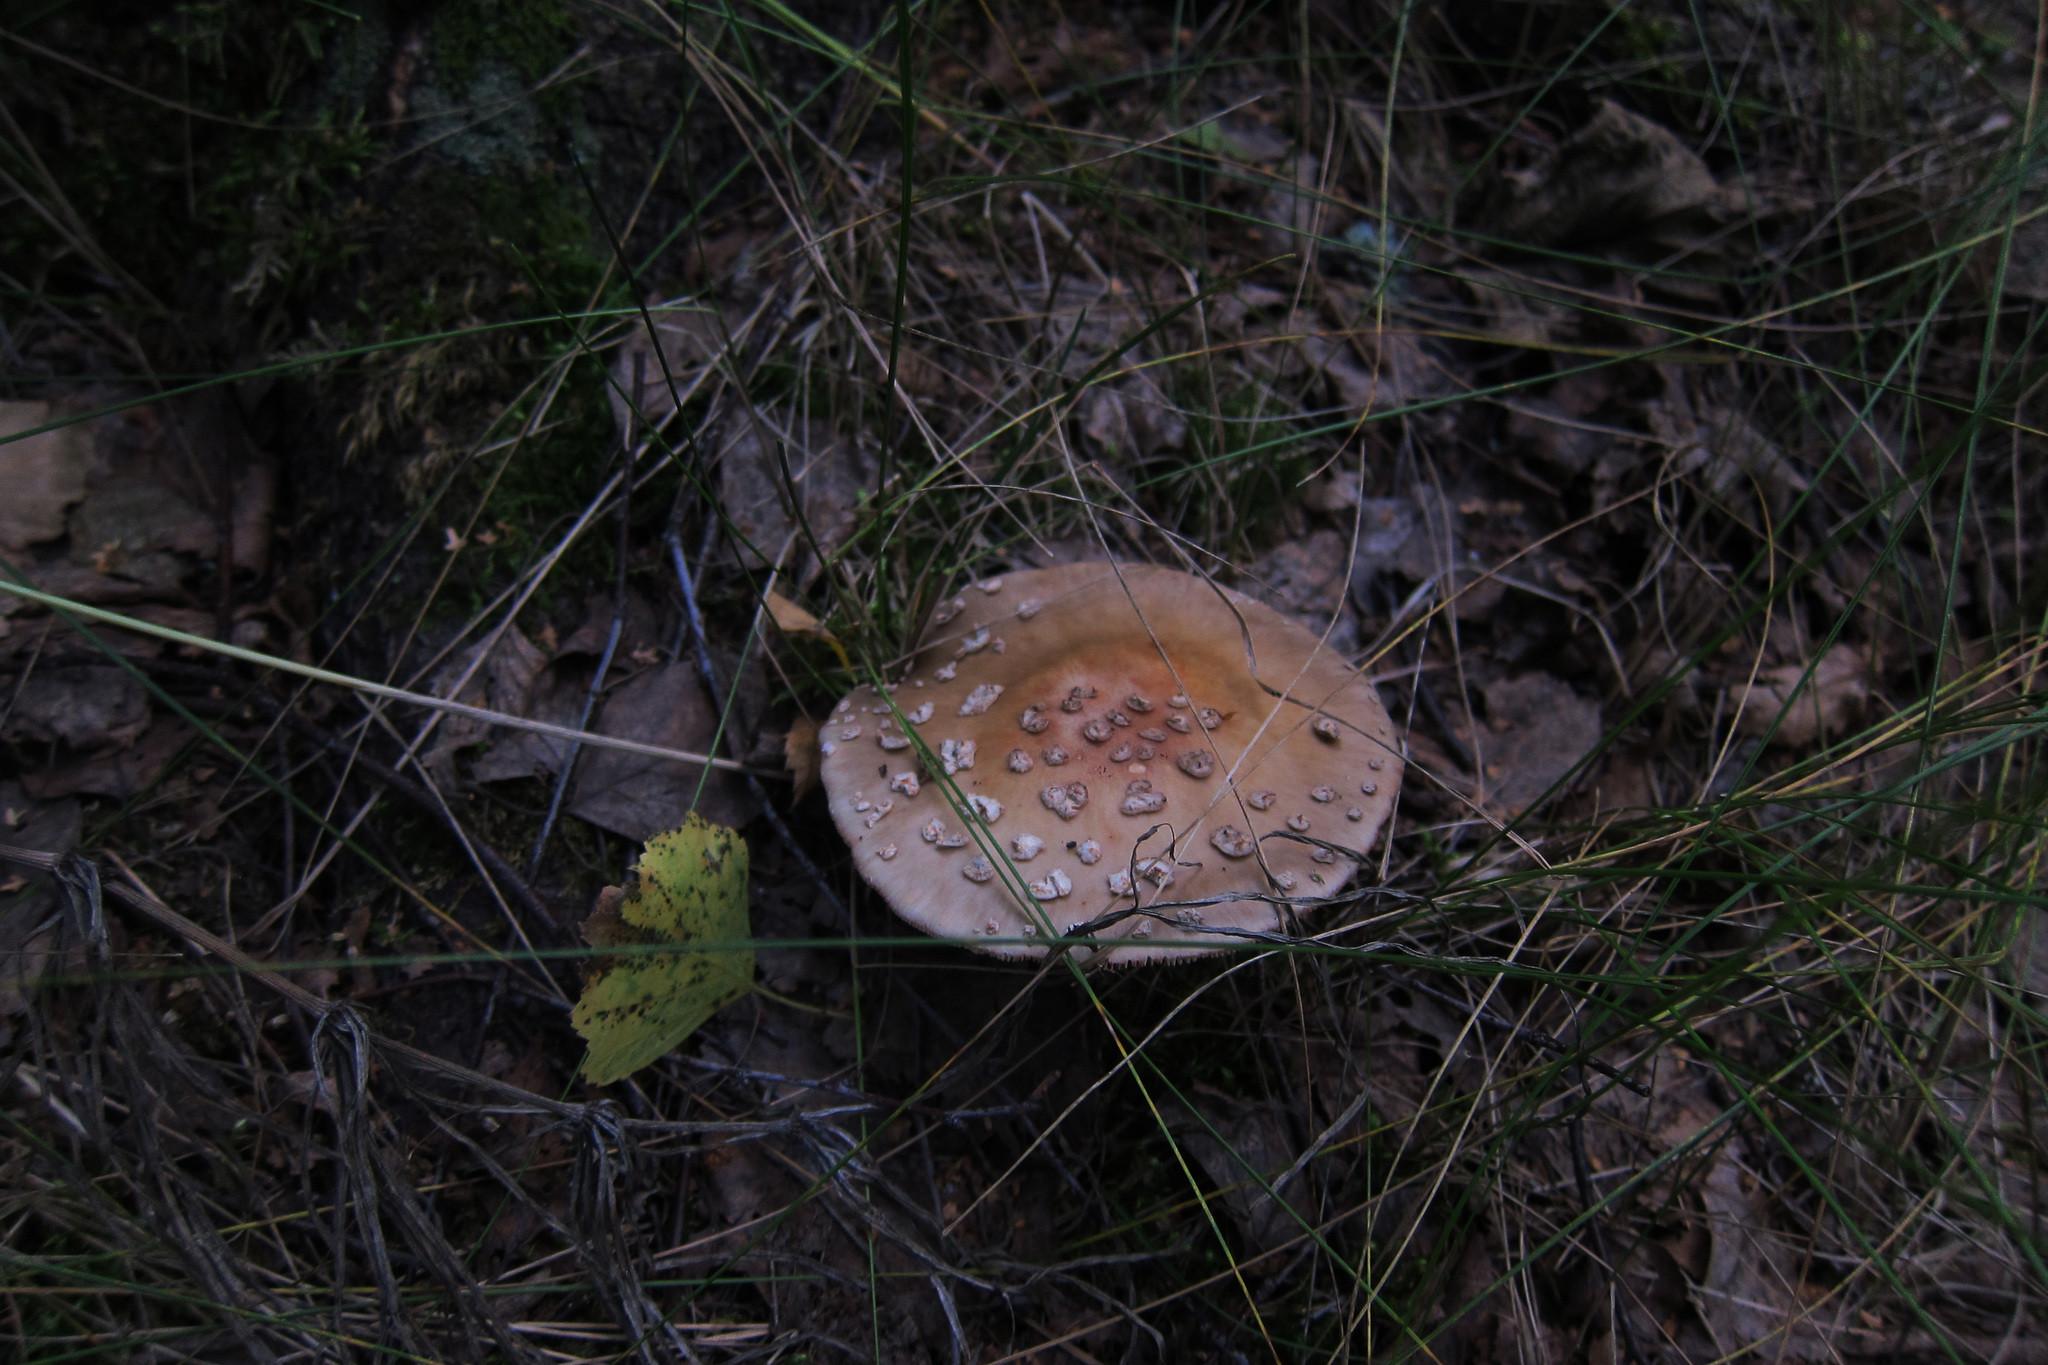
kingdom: Fungi
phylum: Basidiomycota
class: Agaricomycetes
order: Agaricales
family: Amanitaceae
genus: Amanita
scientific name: Amanita rubescens
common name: Blusher
